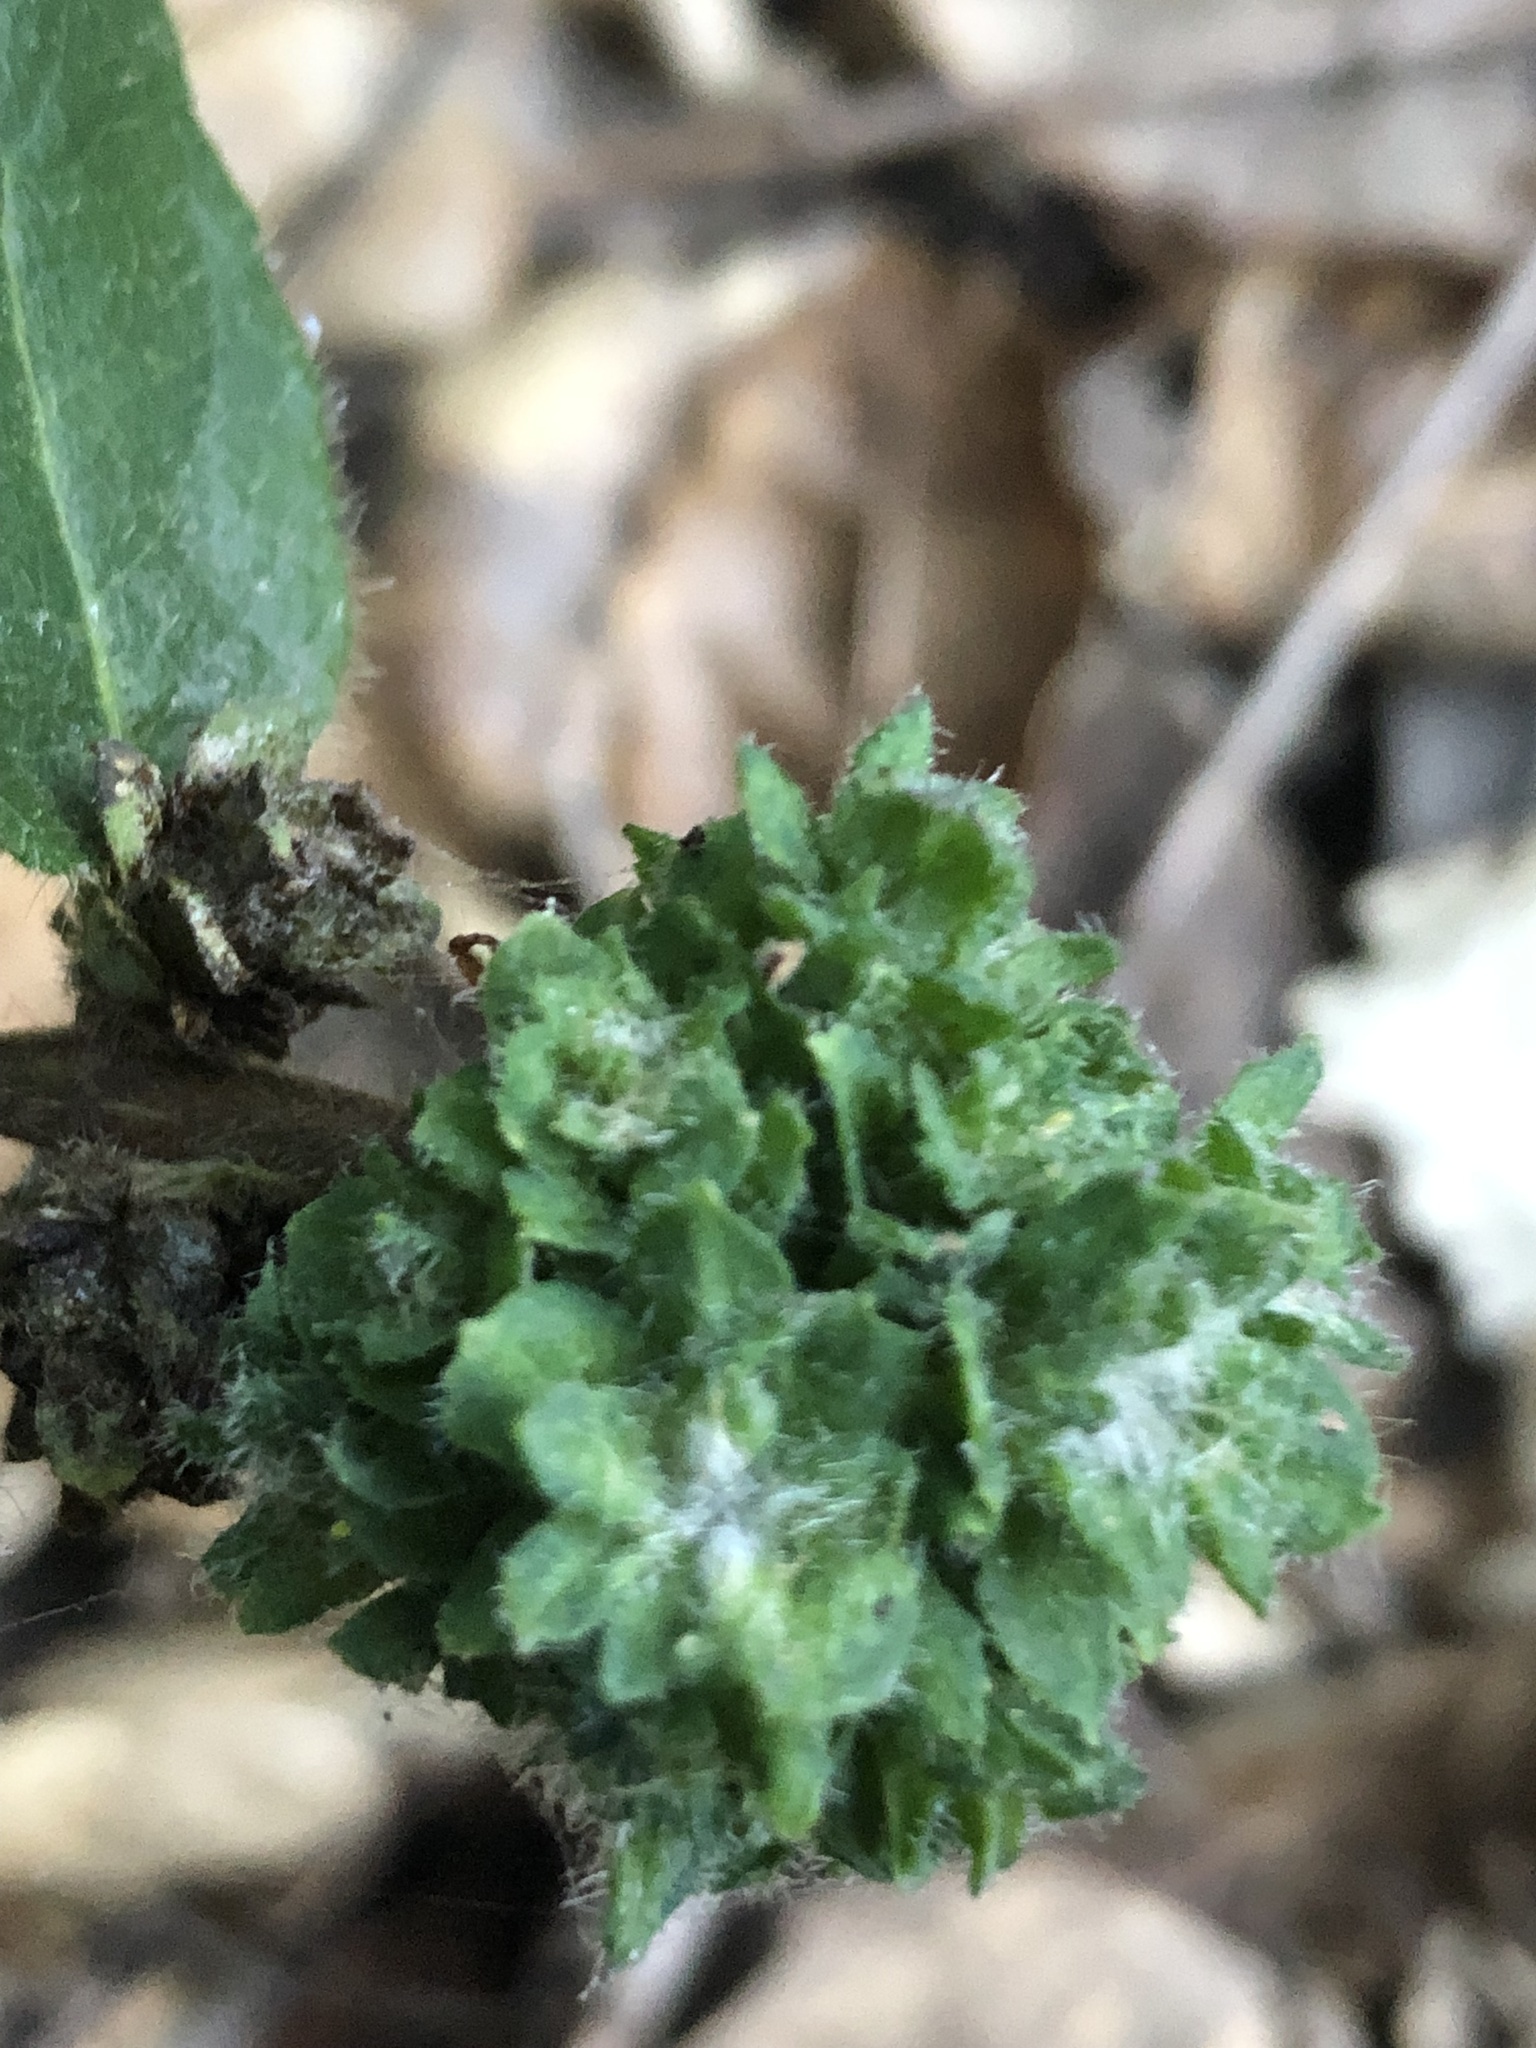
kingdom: Animalia
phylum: Arthropoda
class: Insecta
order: Diptera
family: Cecidomyiidae
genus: Lonicerae
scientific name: Lonicerae russoi
